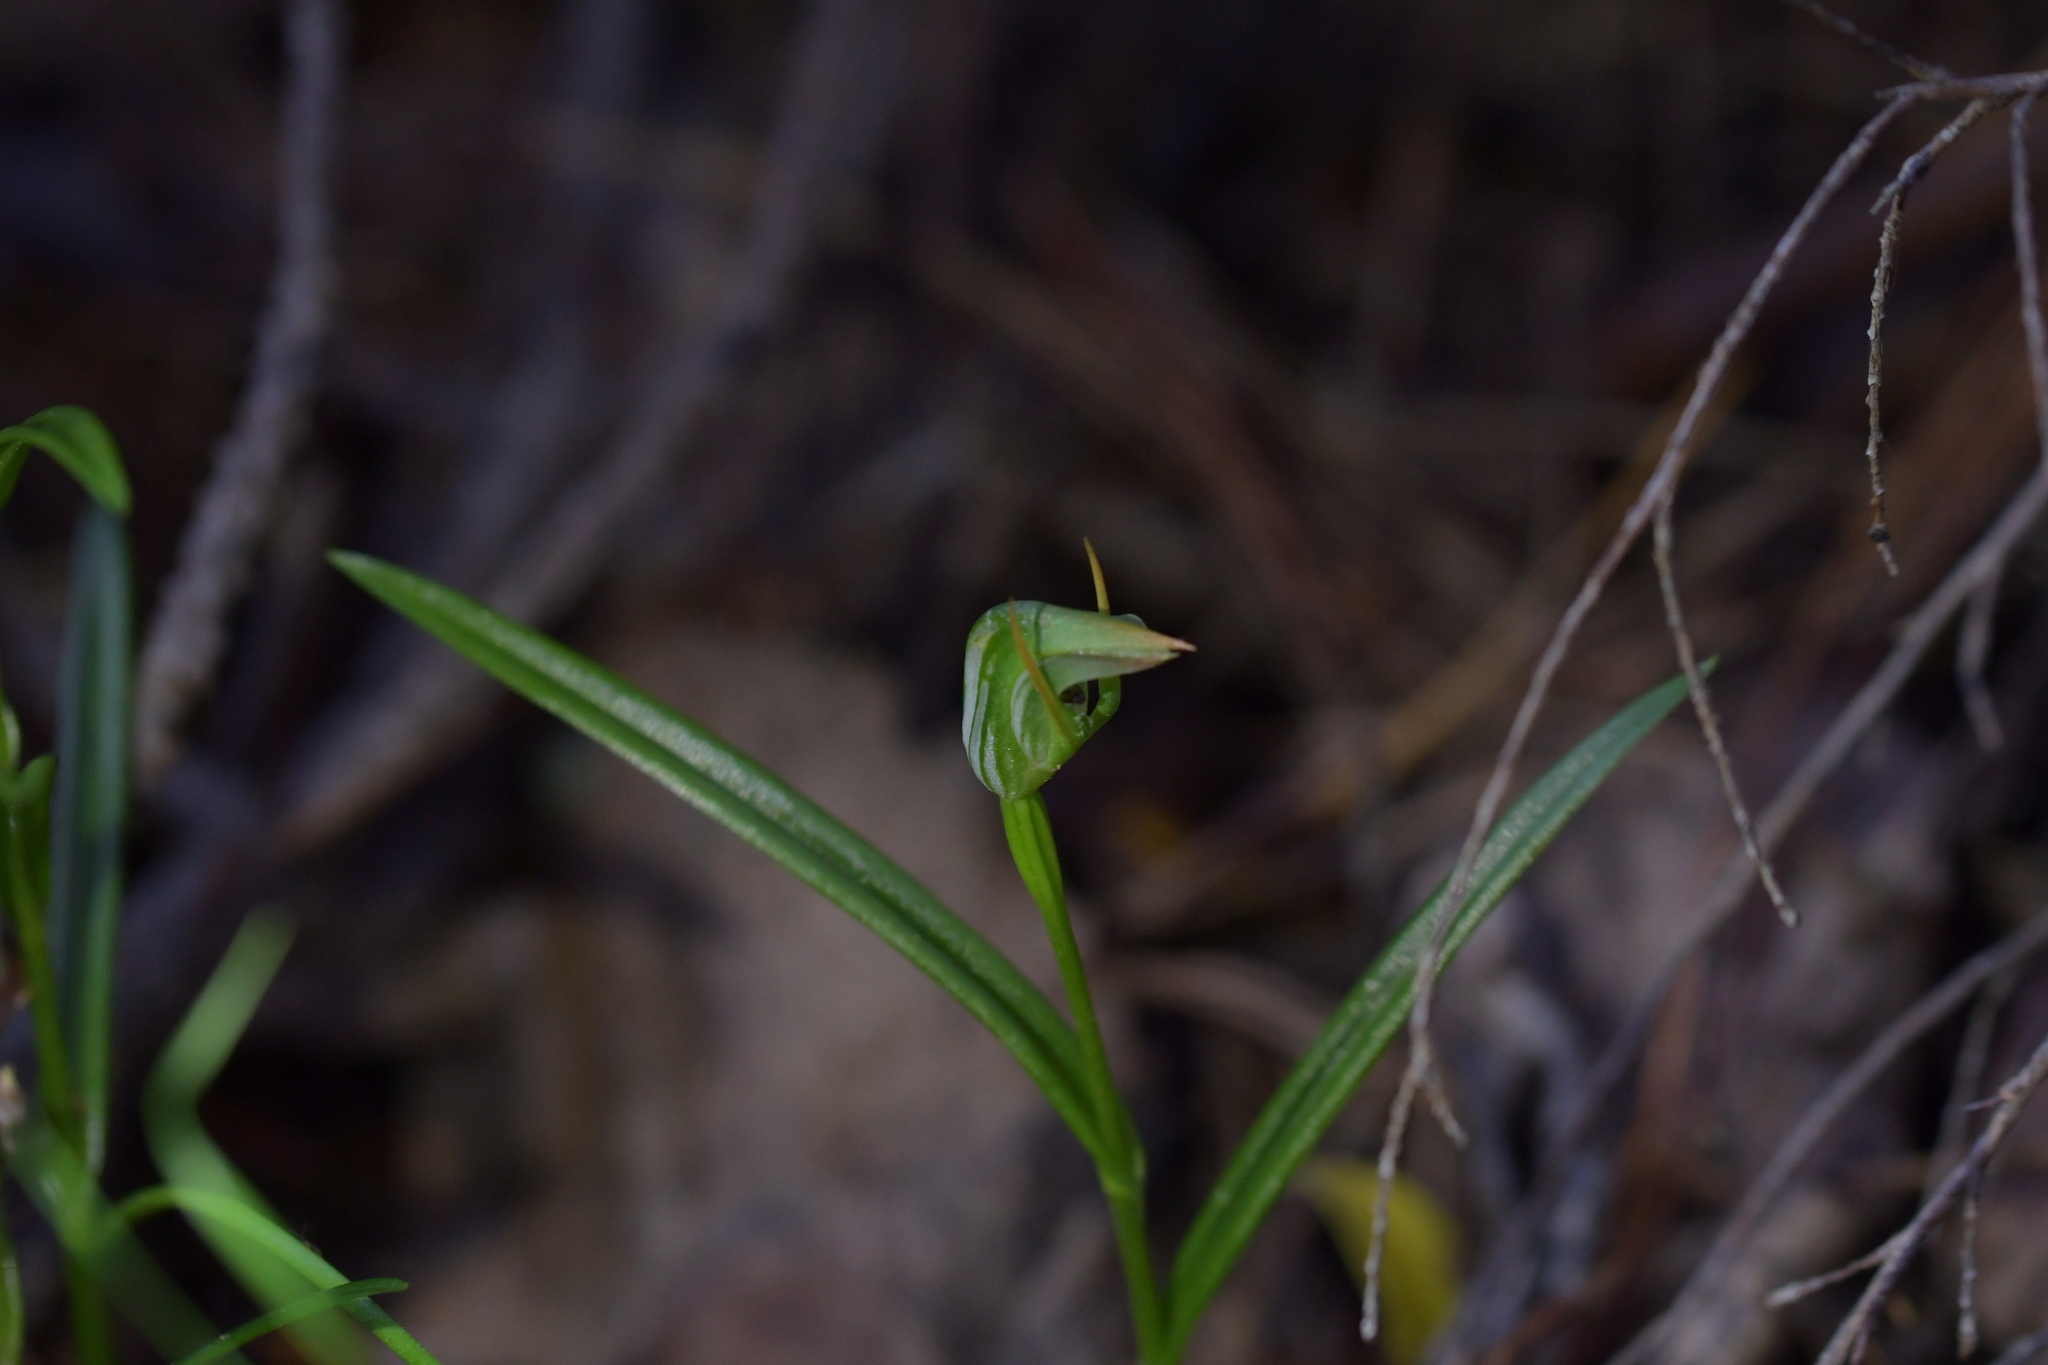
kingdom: Plantae
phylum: Tracheophyta
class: Liliopsida
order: Asparagales
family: Orchidaceae
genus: Pterostylis
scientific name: Pterostylis graminea
